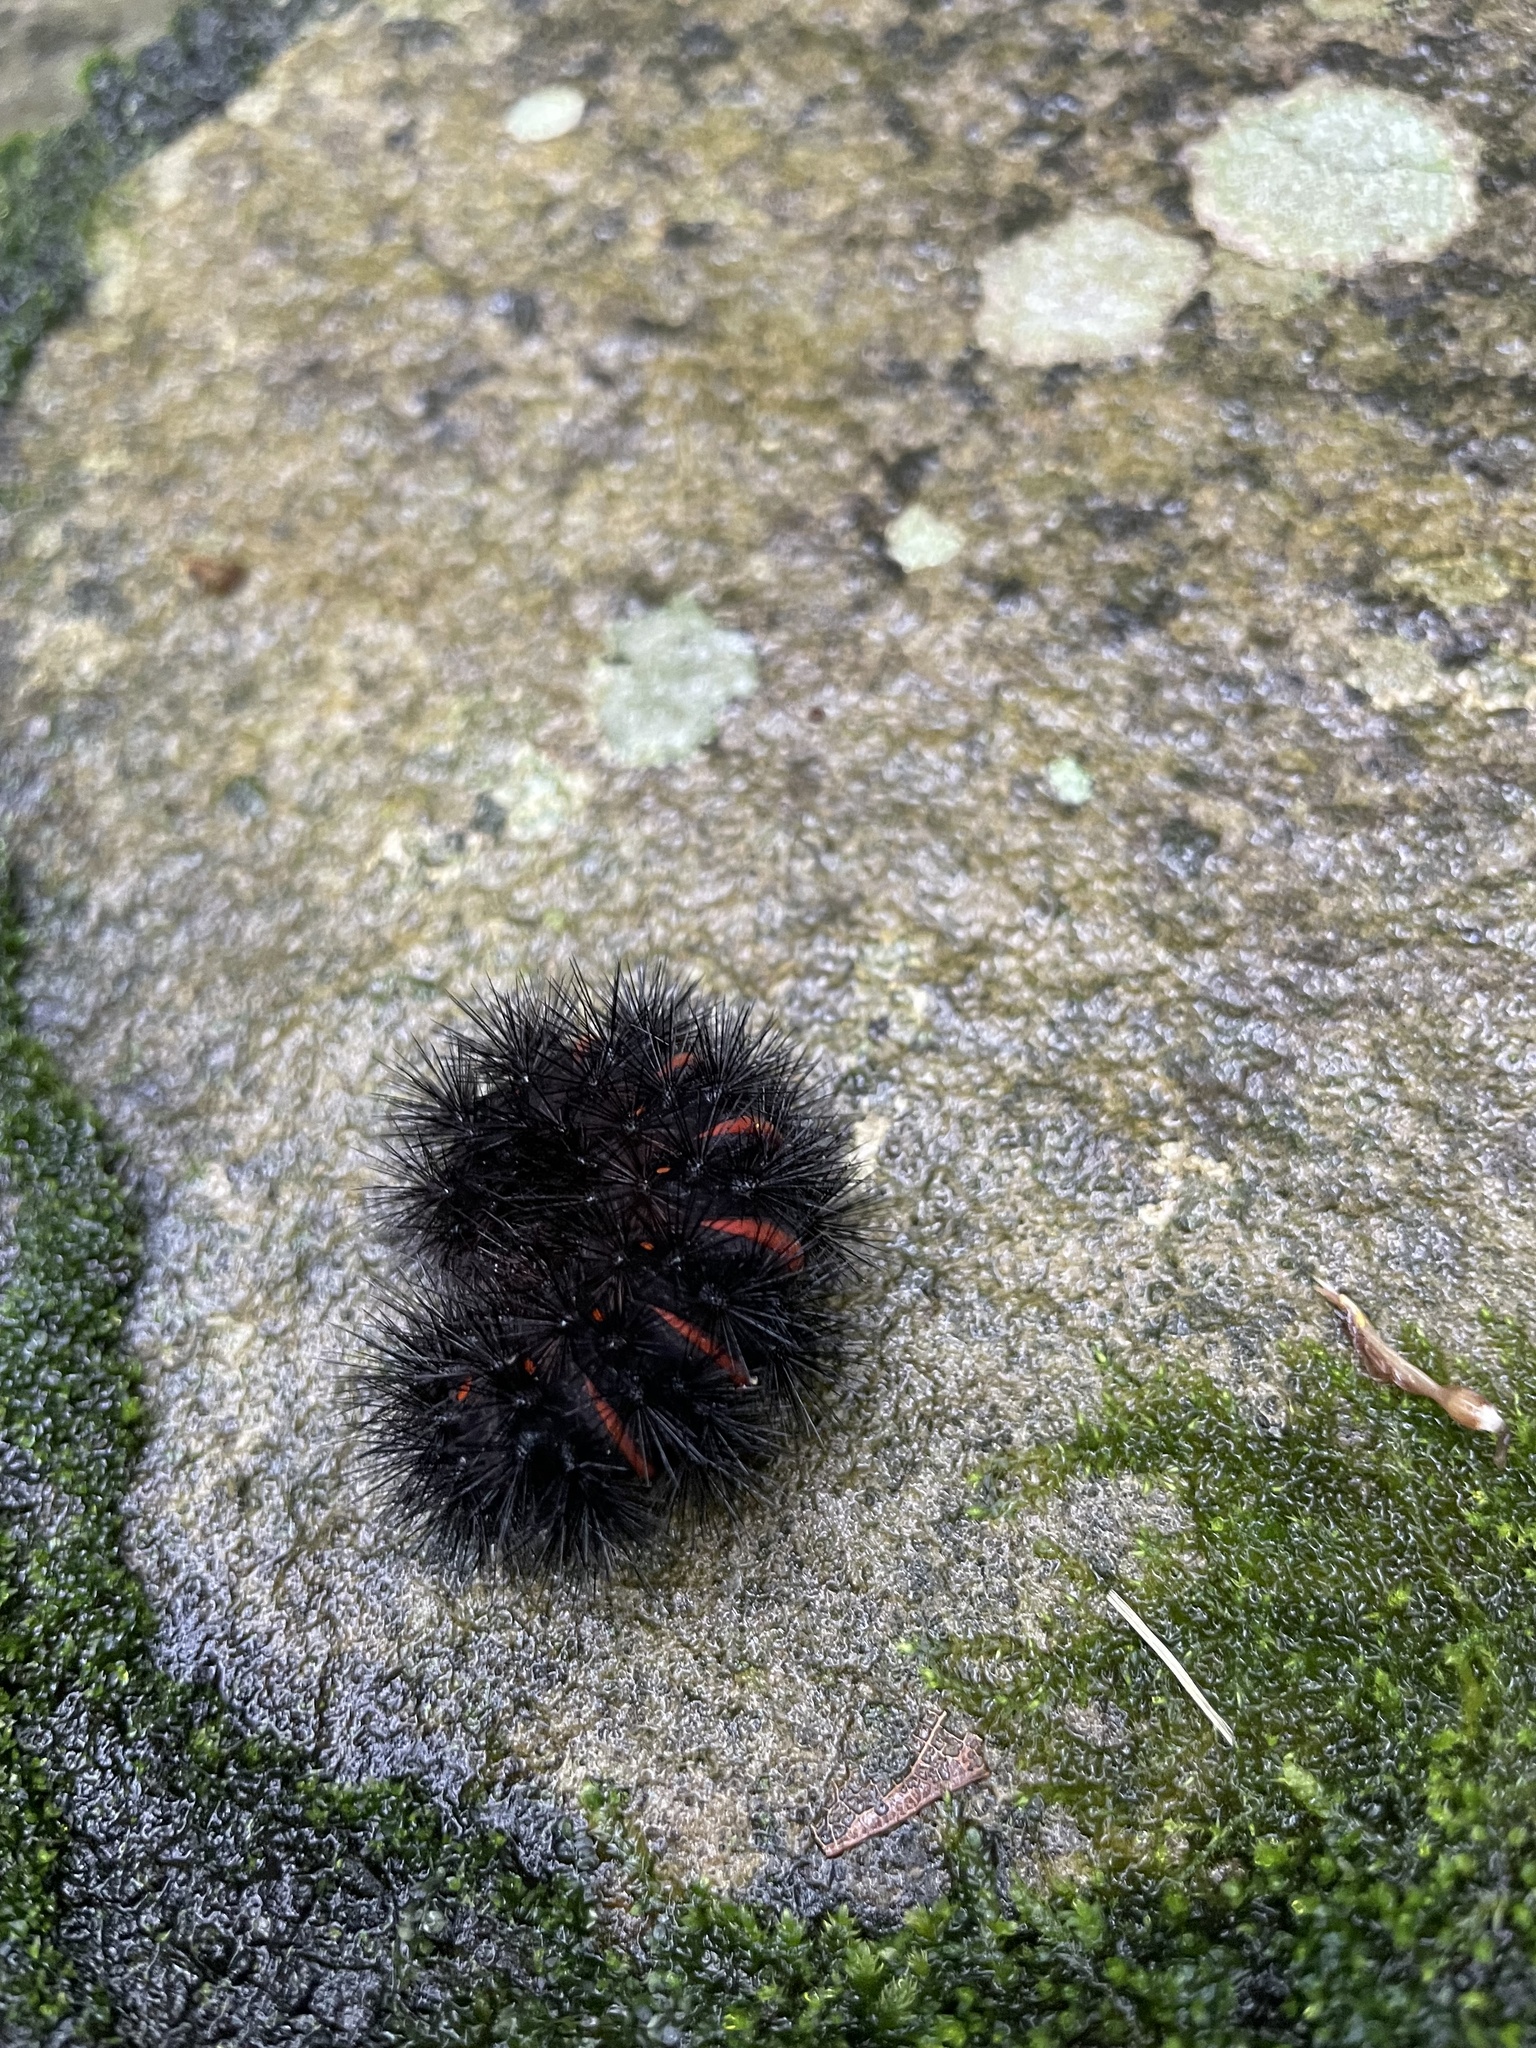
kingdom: Animalia
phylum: Arthropoda
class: Insecta
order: Lepidoptera
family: Erebidae
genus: Hypercompe
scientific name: Hypercompe scribonia
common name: Giant leopard moth
